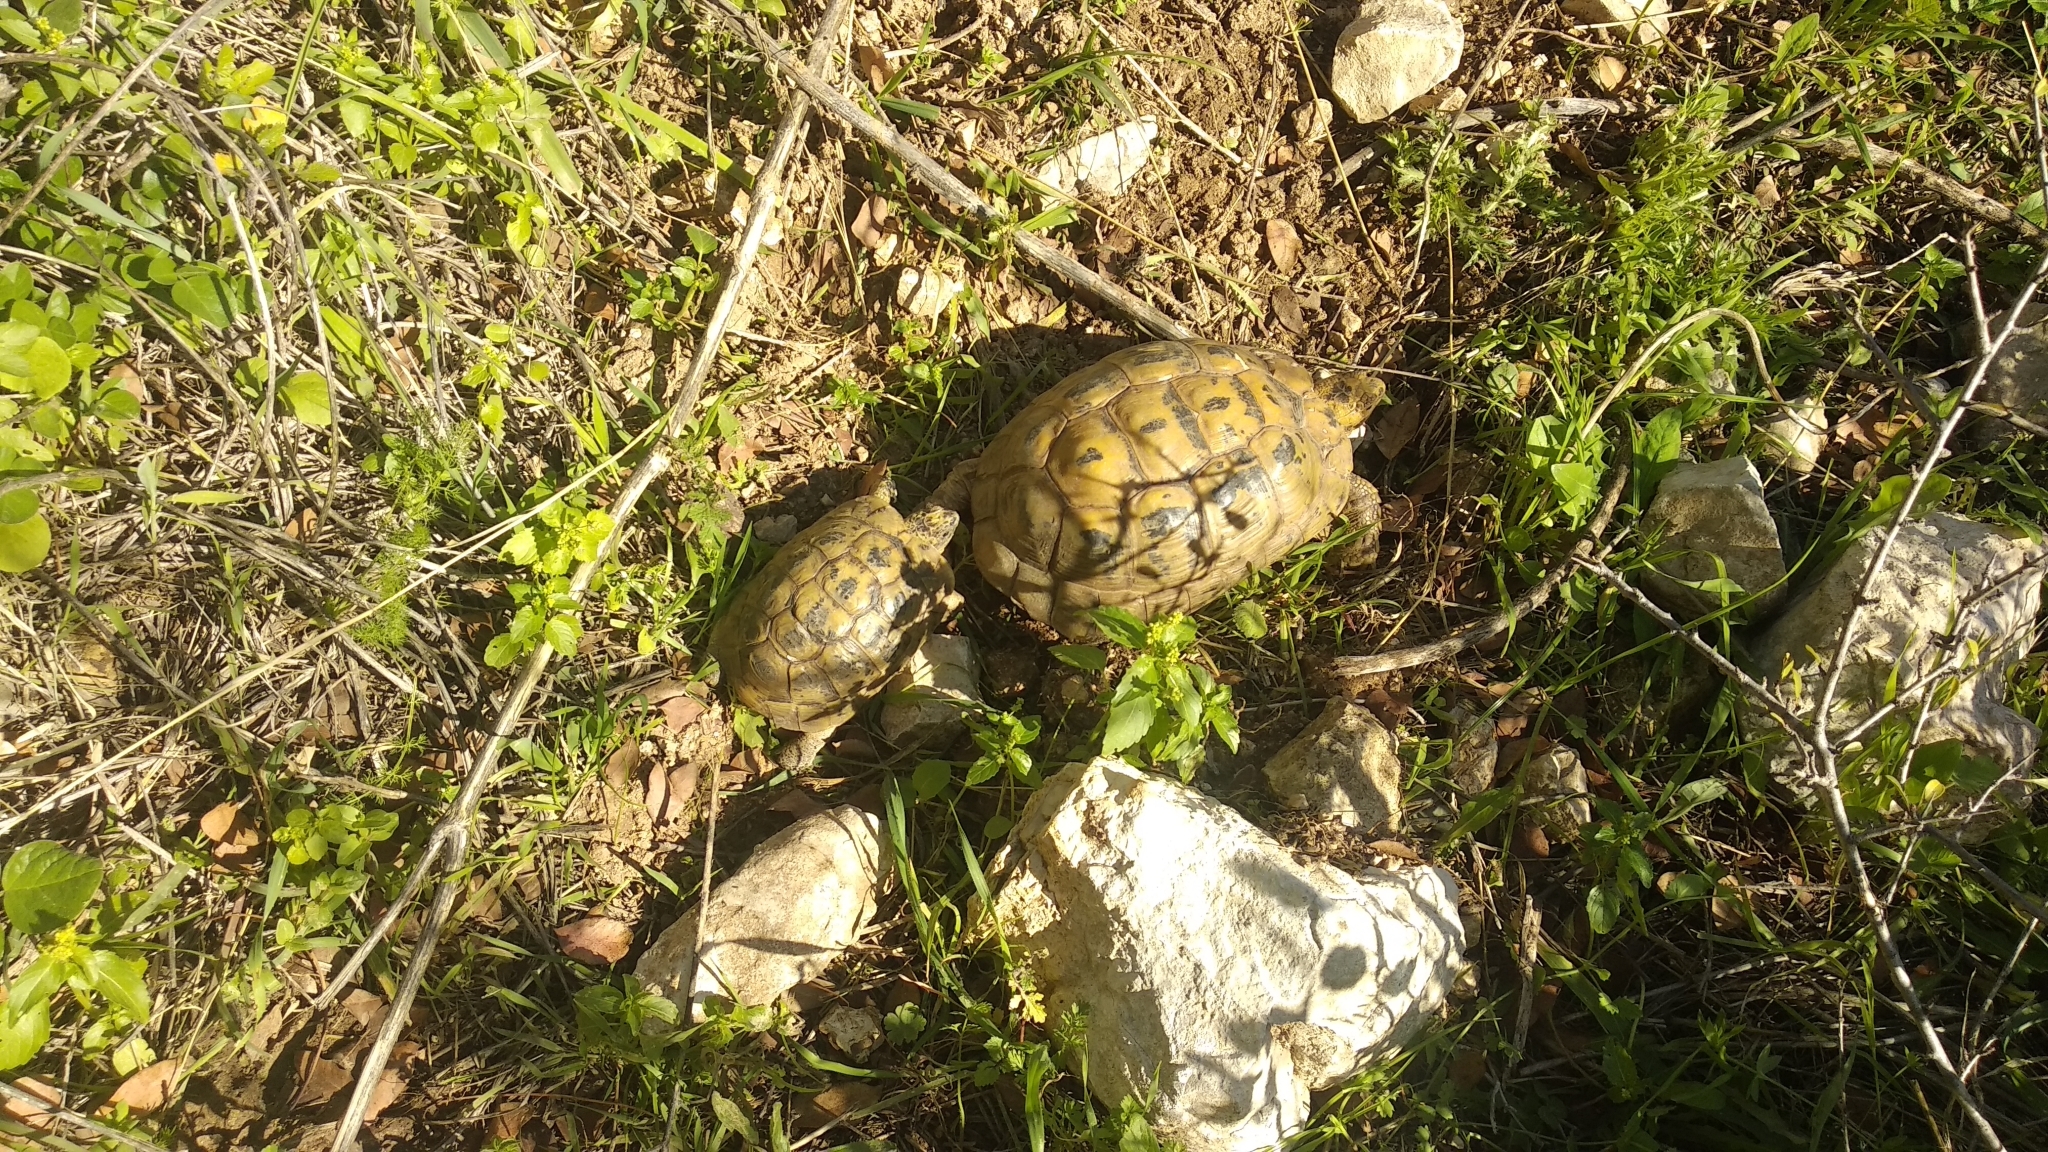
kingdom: Animalia
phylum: Chordata
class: Testudines
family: Testudinidae
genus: Testudo
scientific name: Testudo graeca
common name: Common tortoise
